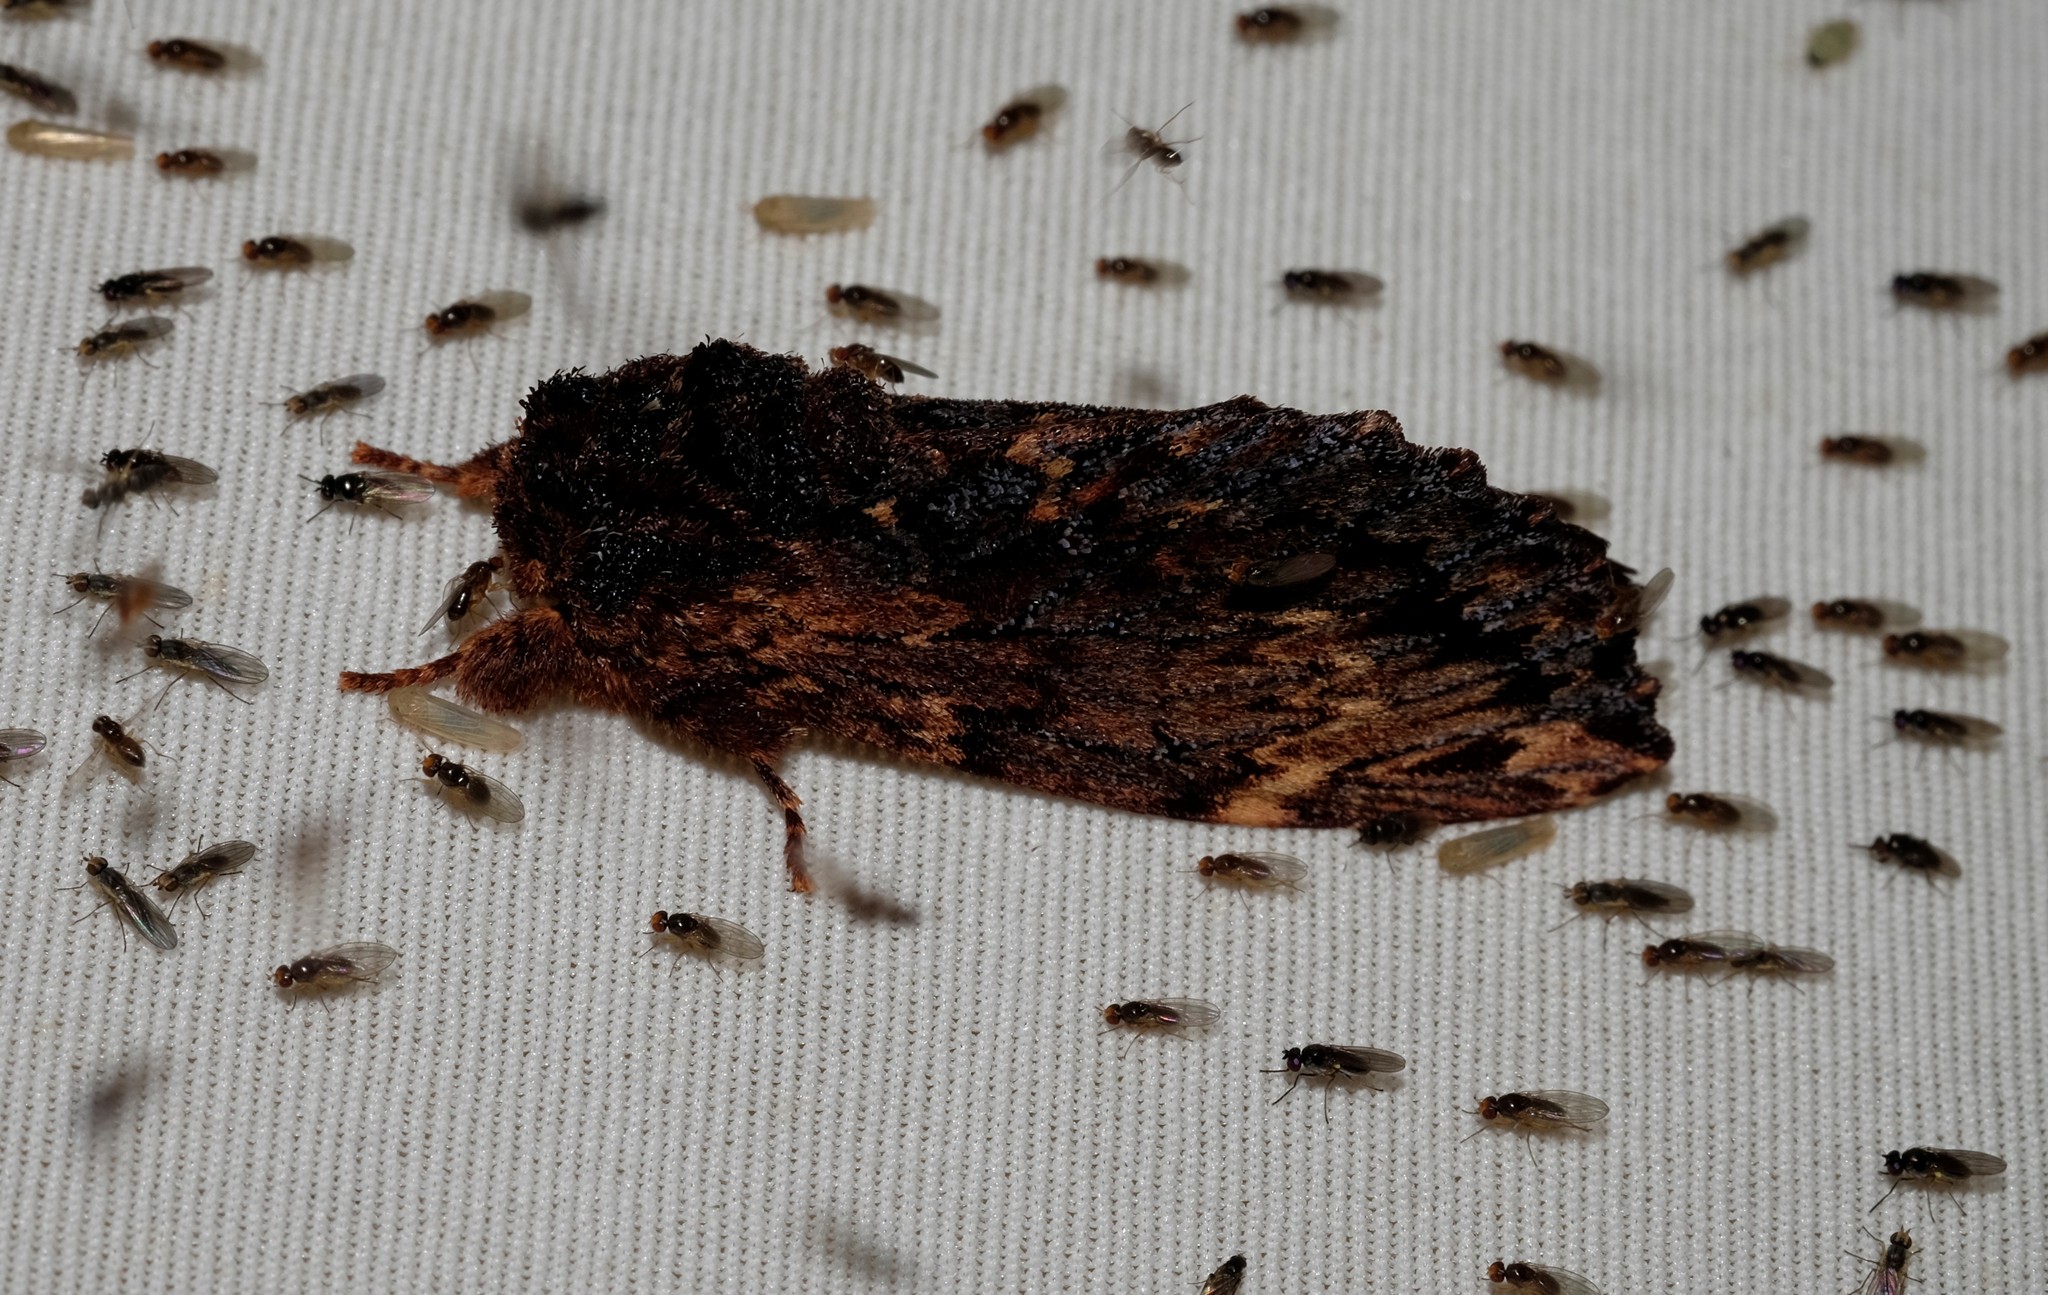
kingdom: Animalia
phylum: Arthropoda
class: Insecta
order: Lepidoptera
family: Notodontidae
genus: Sorama
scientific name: Sorama bicolor
